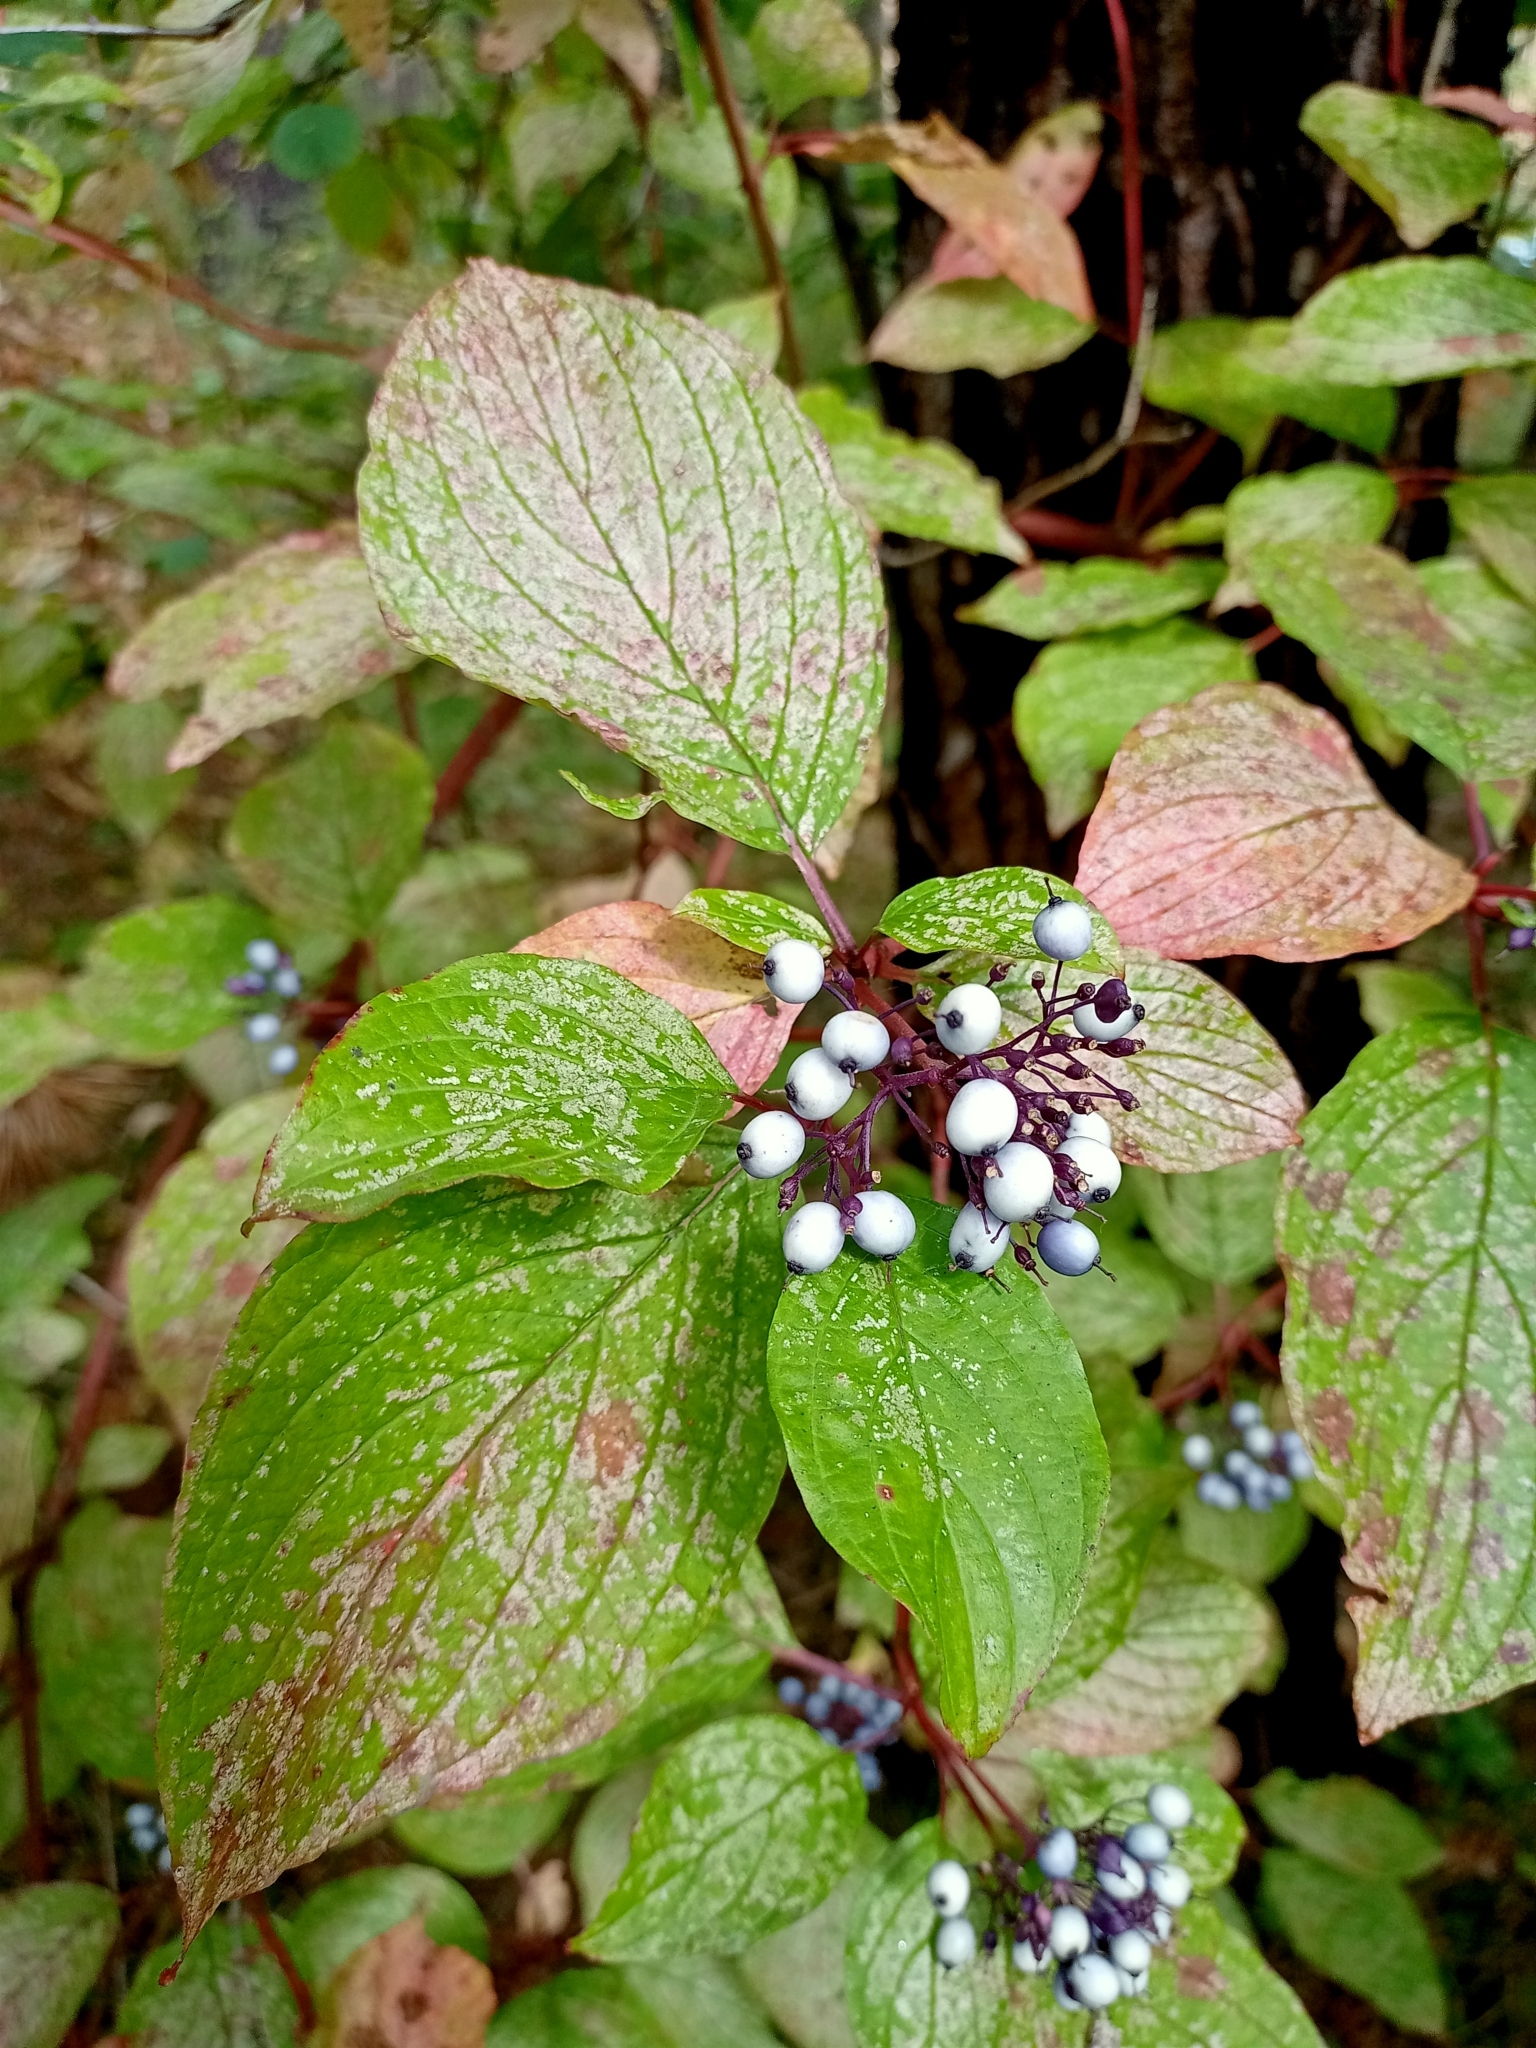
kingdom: Plantae
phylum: Tracheophyta
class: Magnoliopsida
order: Cornales
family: Cornaceae
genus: Cornus
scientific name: Cornus alba
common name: White dogwood
